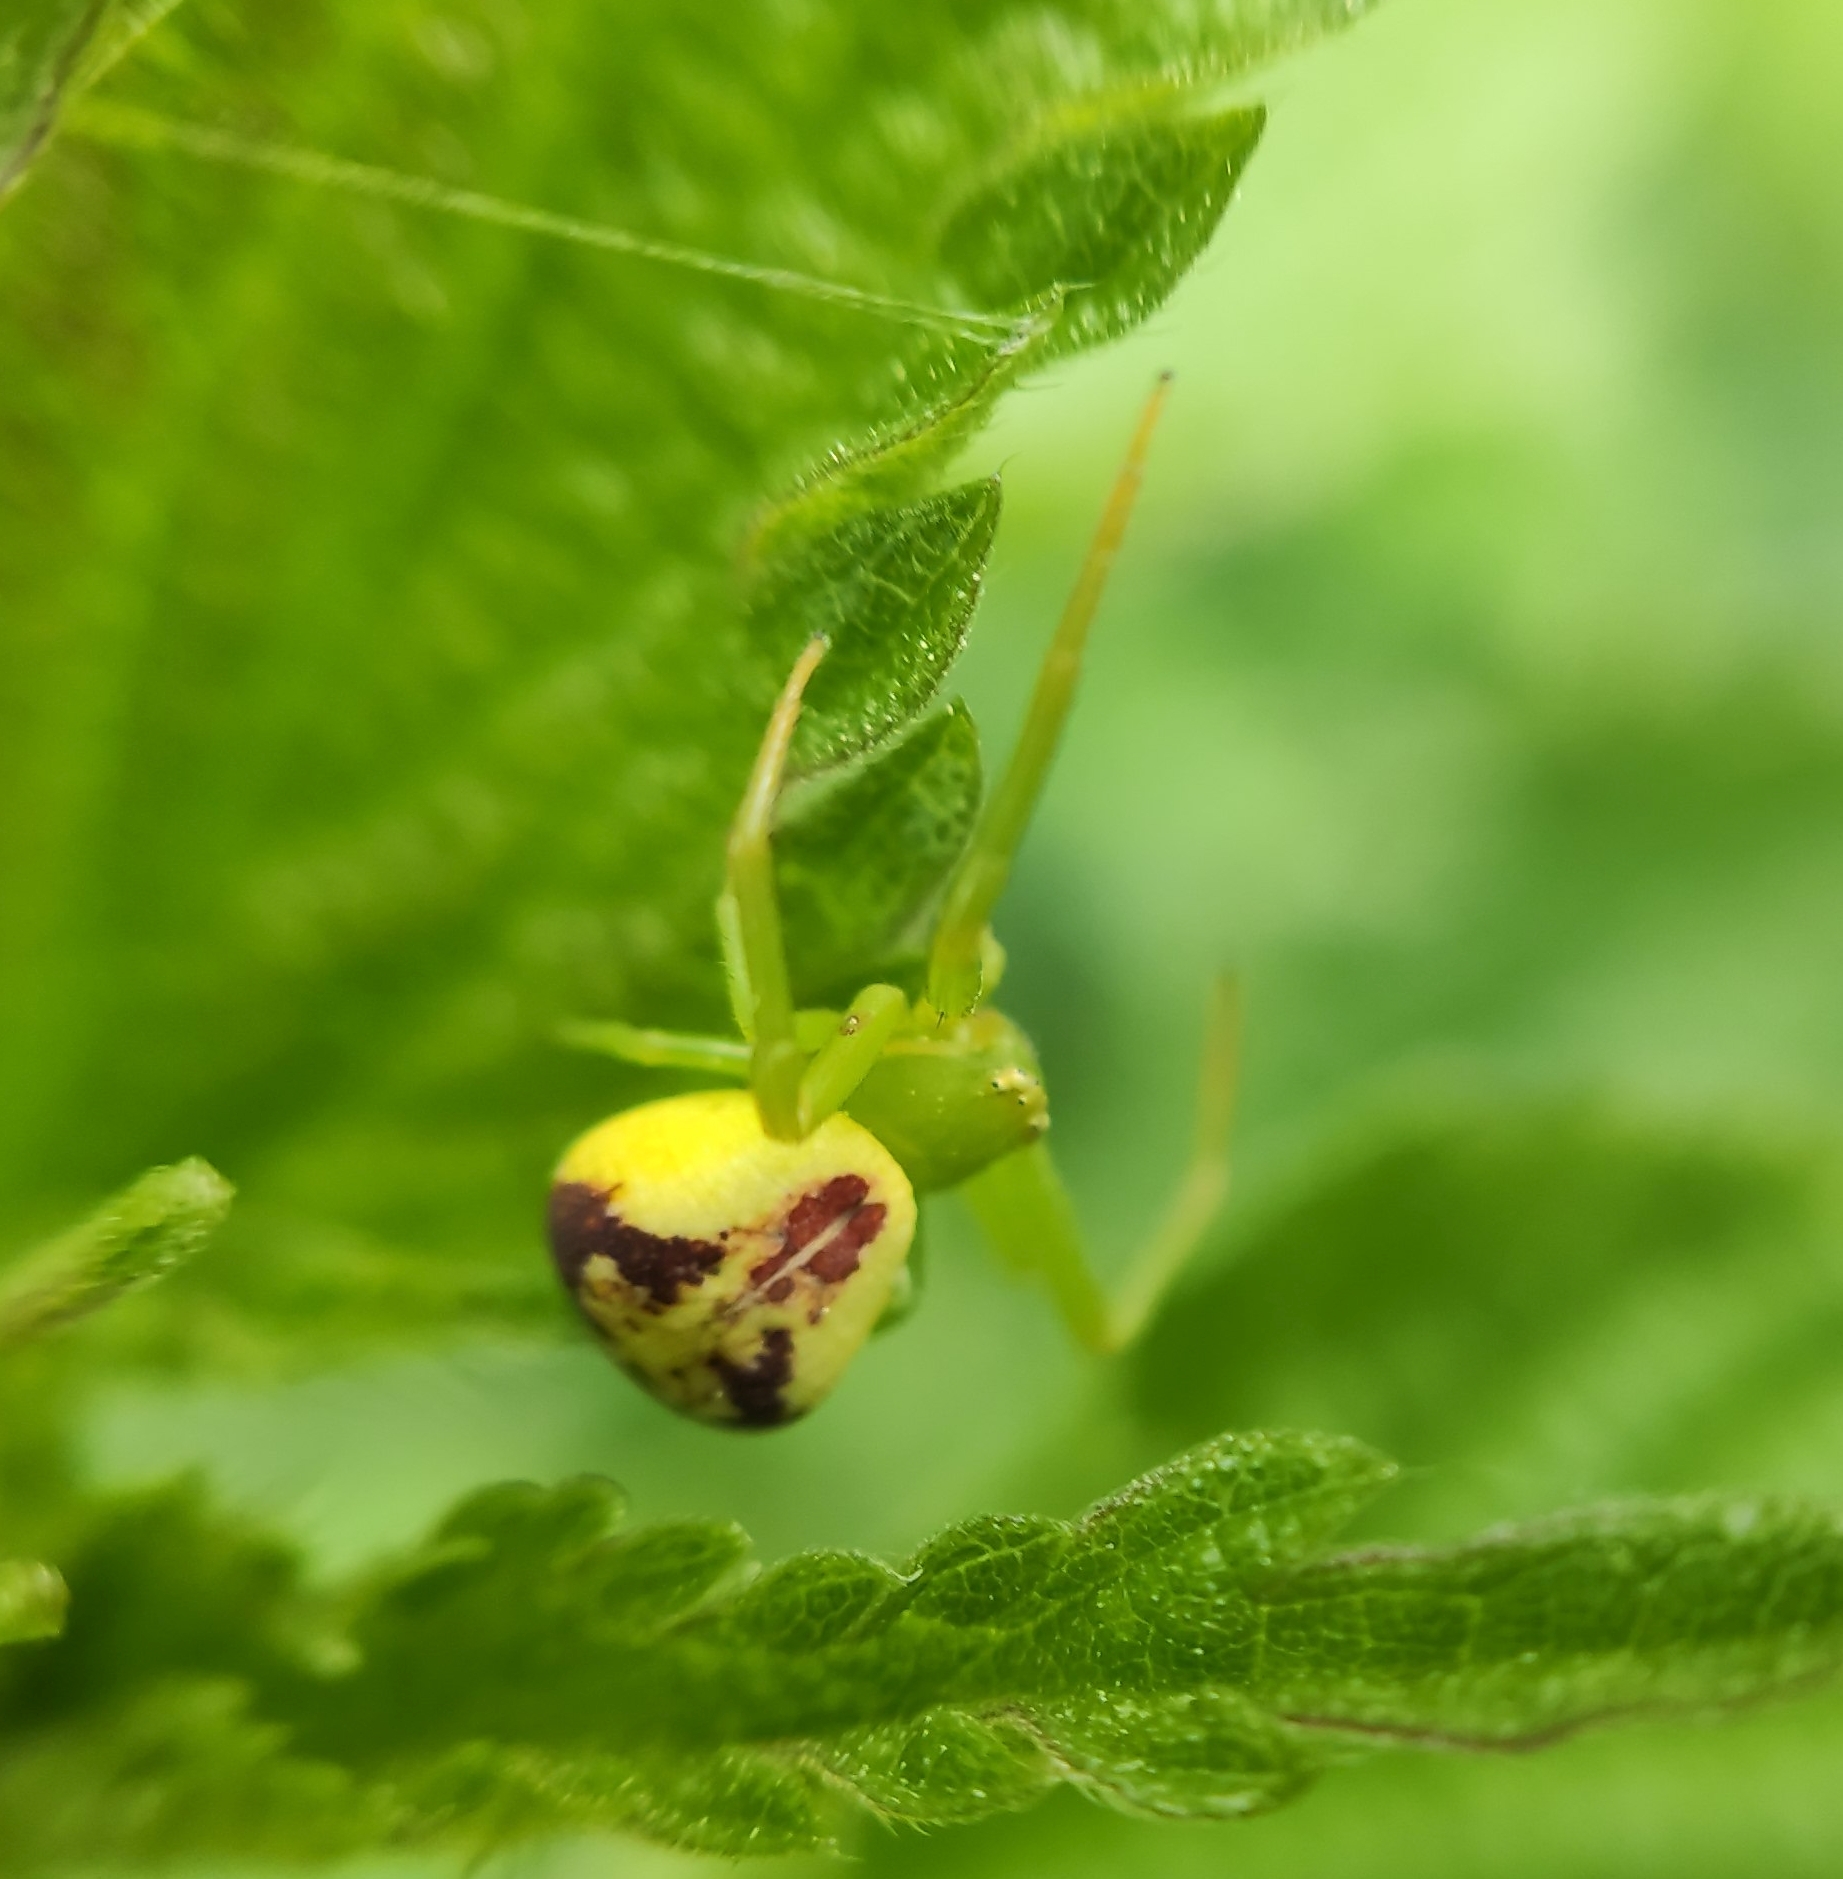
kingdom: Animalia
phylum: Arthropoda
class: Arachnida
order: Araneae
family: Thomisidae
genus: Ebrechtella
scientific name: Ebrechtella tricuspidata
